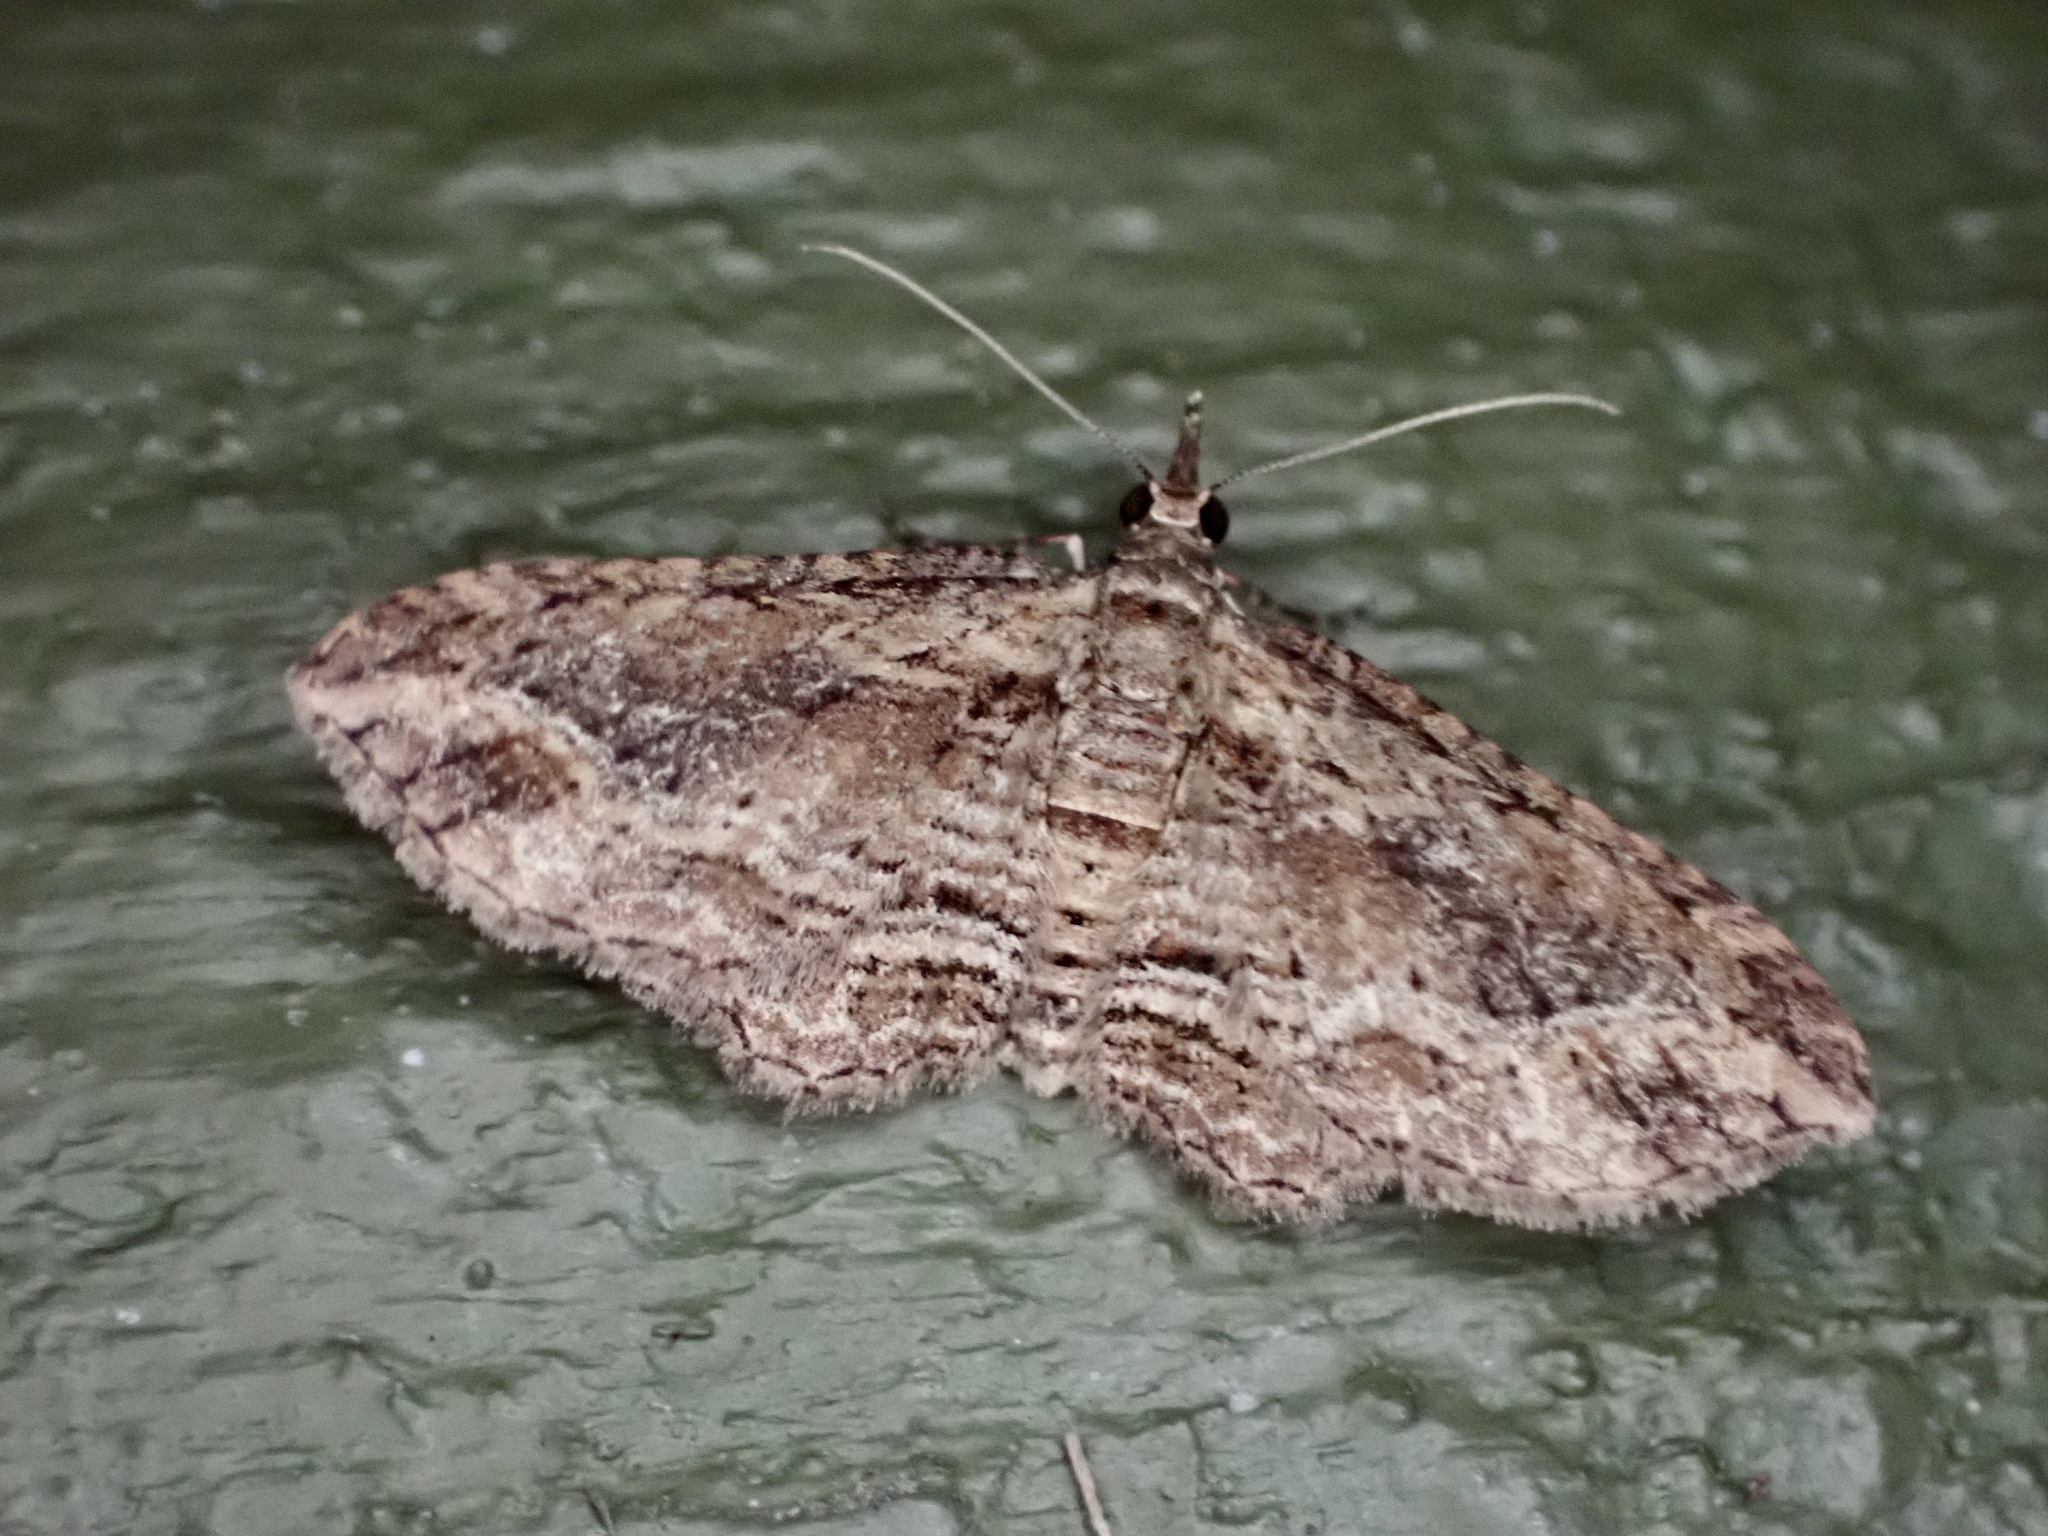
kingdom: Animalia
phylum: Arthropoda
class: Insecta
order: Lepidoptera
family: Geometridae
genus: Chloroclystis
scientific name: Chloroclystis filata
